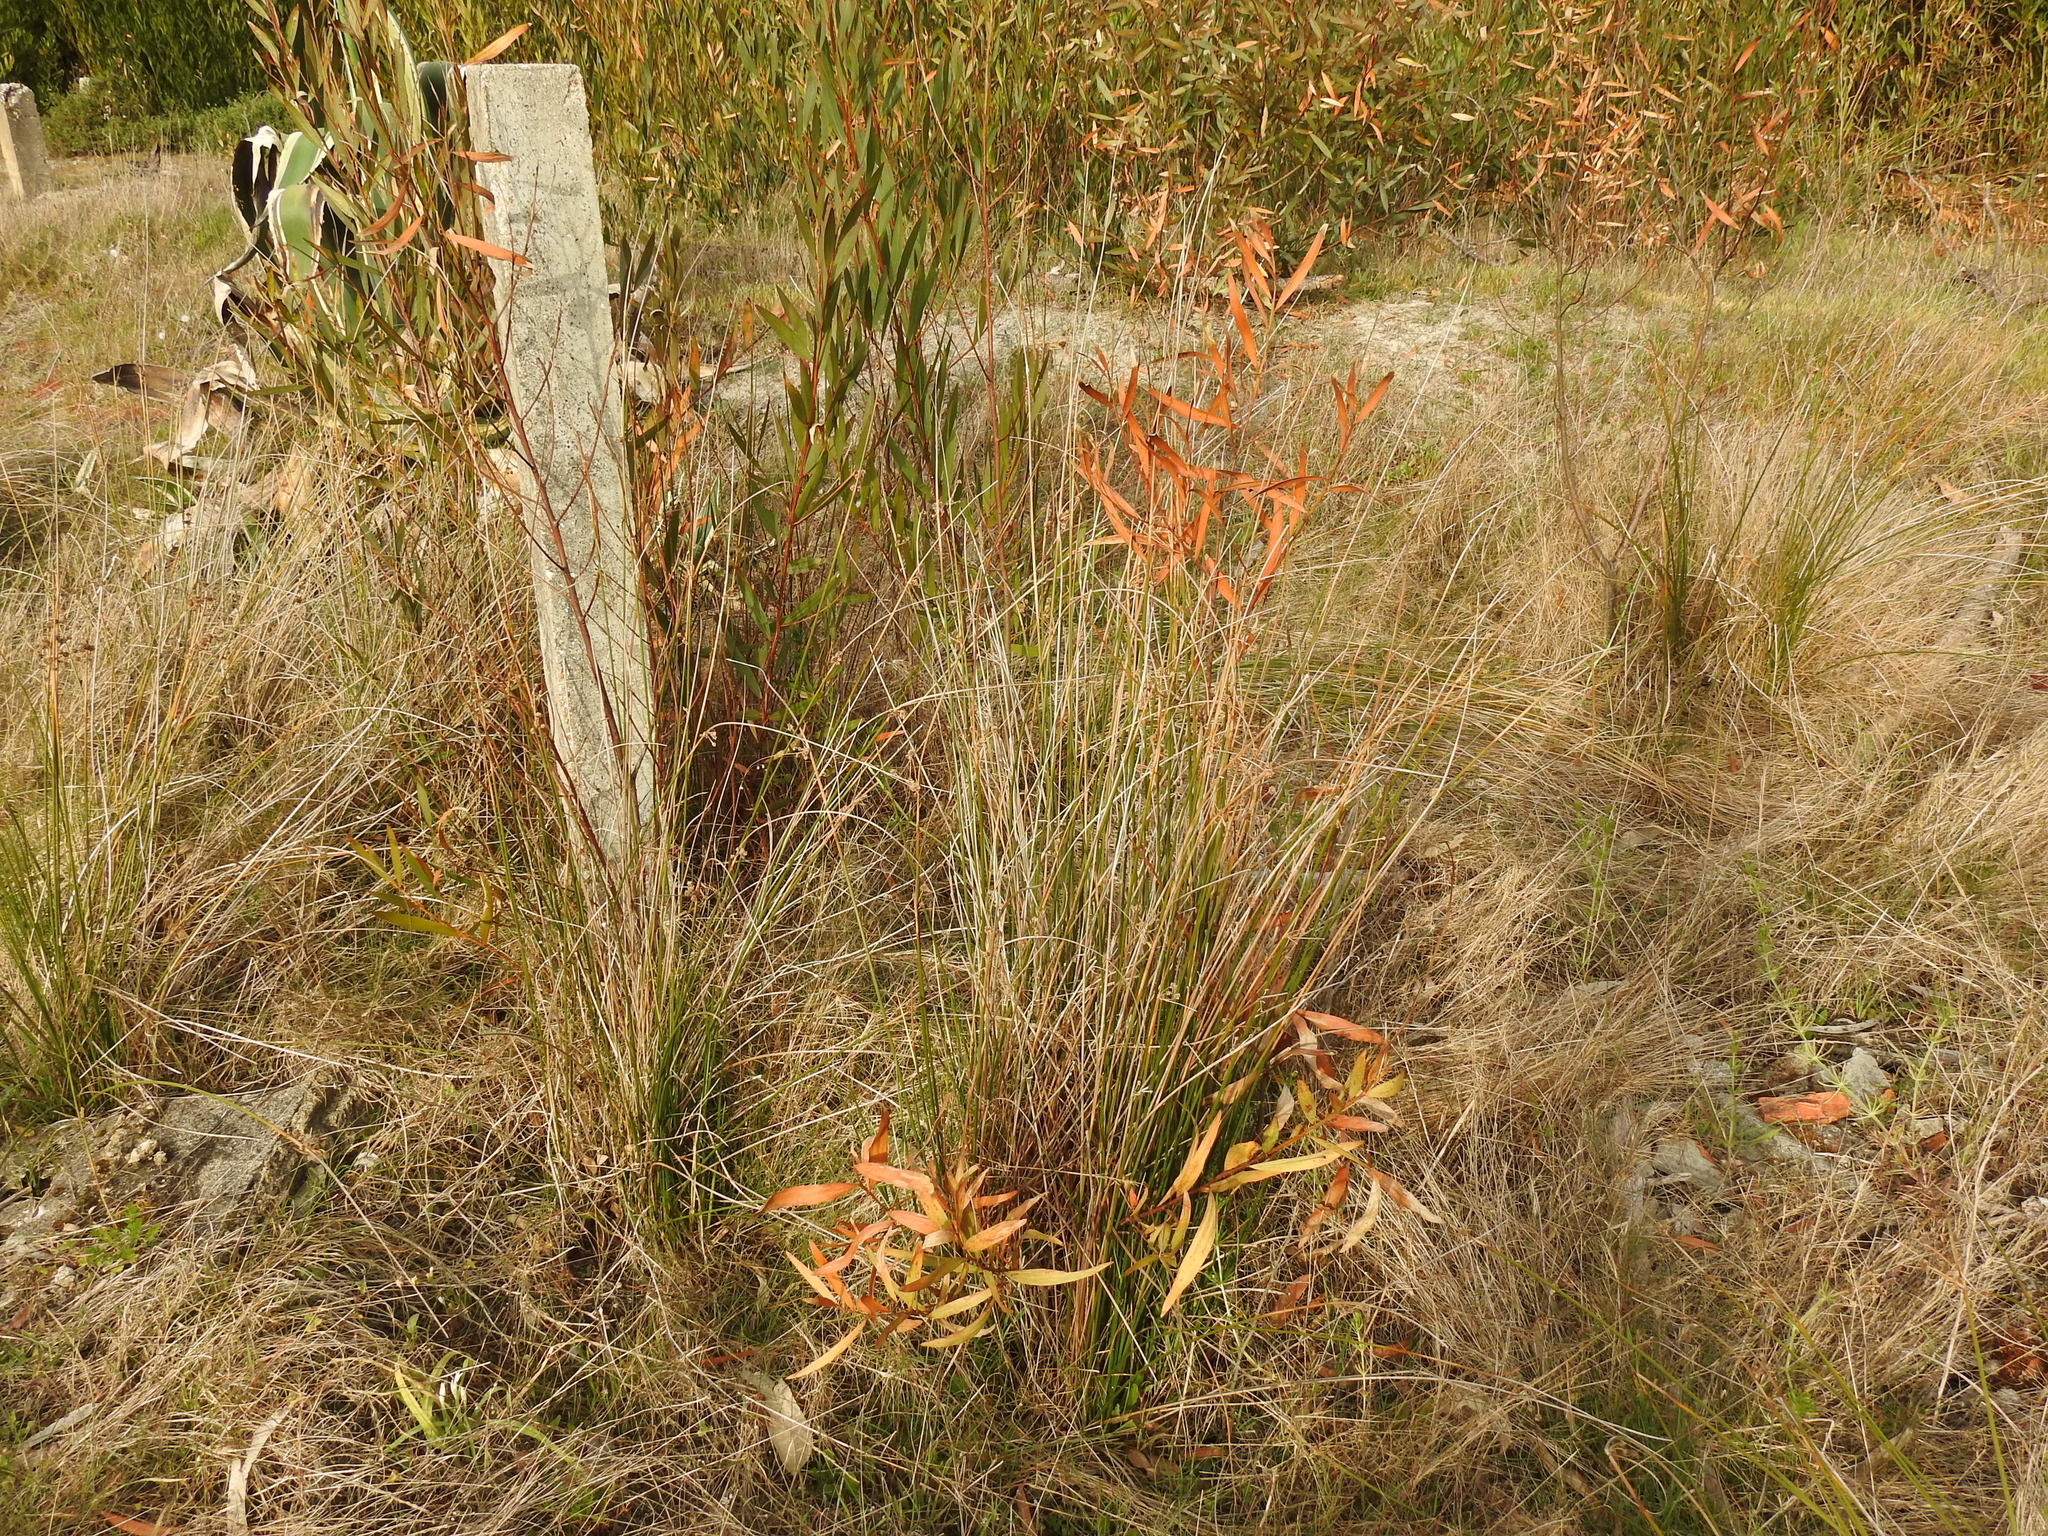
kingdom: Plantae
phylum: Tracheophyta
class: Liliopsida
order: Poales
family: Cyperaceae
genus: Scirpoides
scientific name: Scirpoides holoschoenus
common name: Round-headed club-rush
